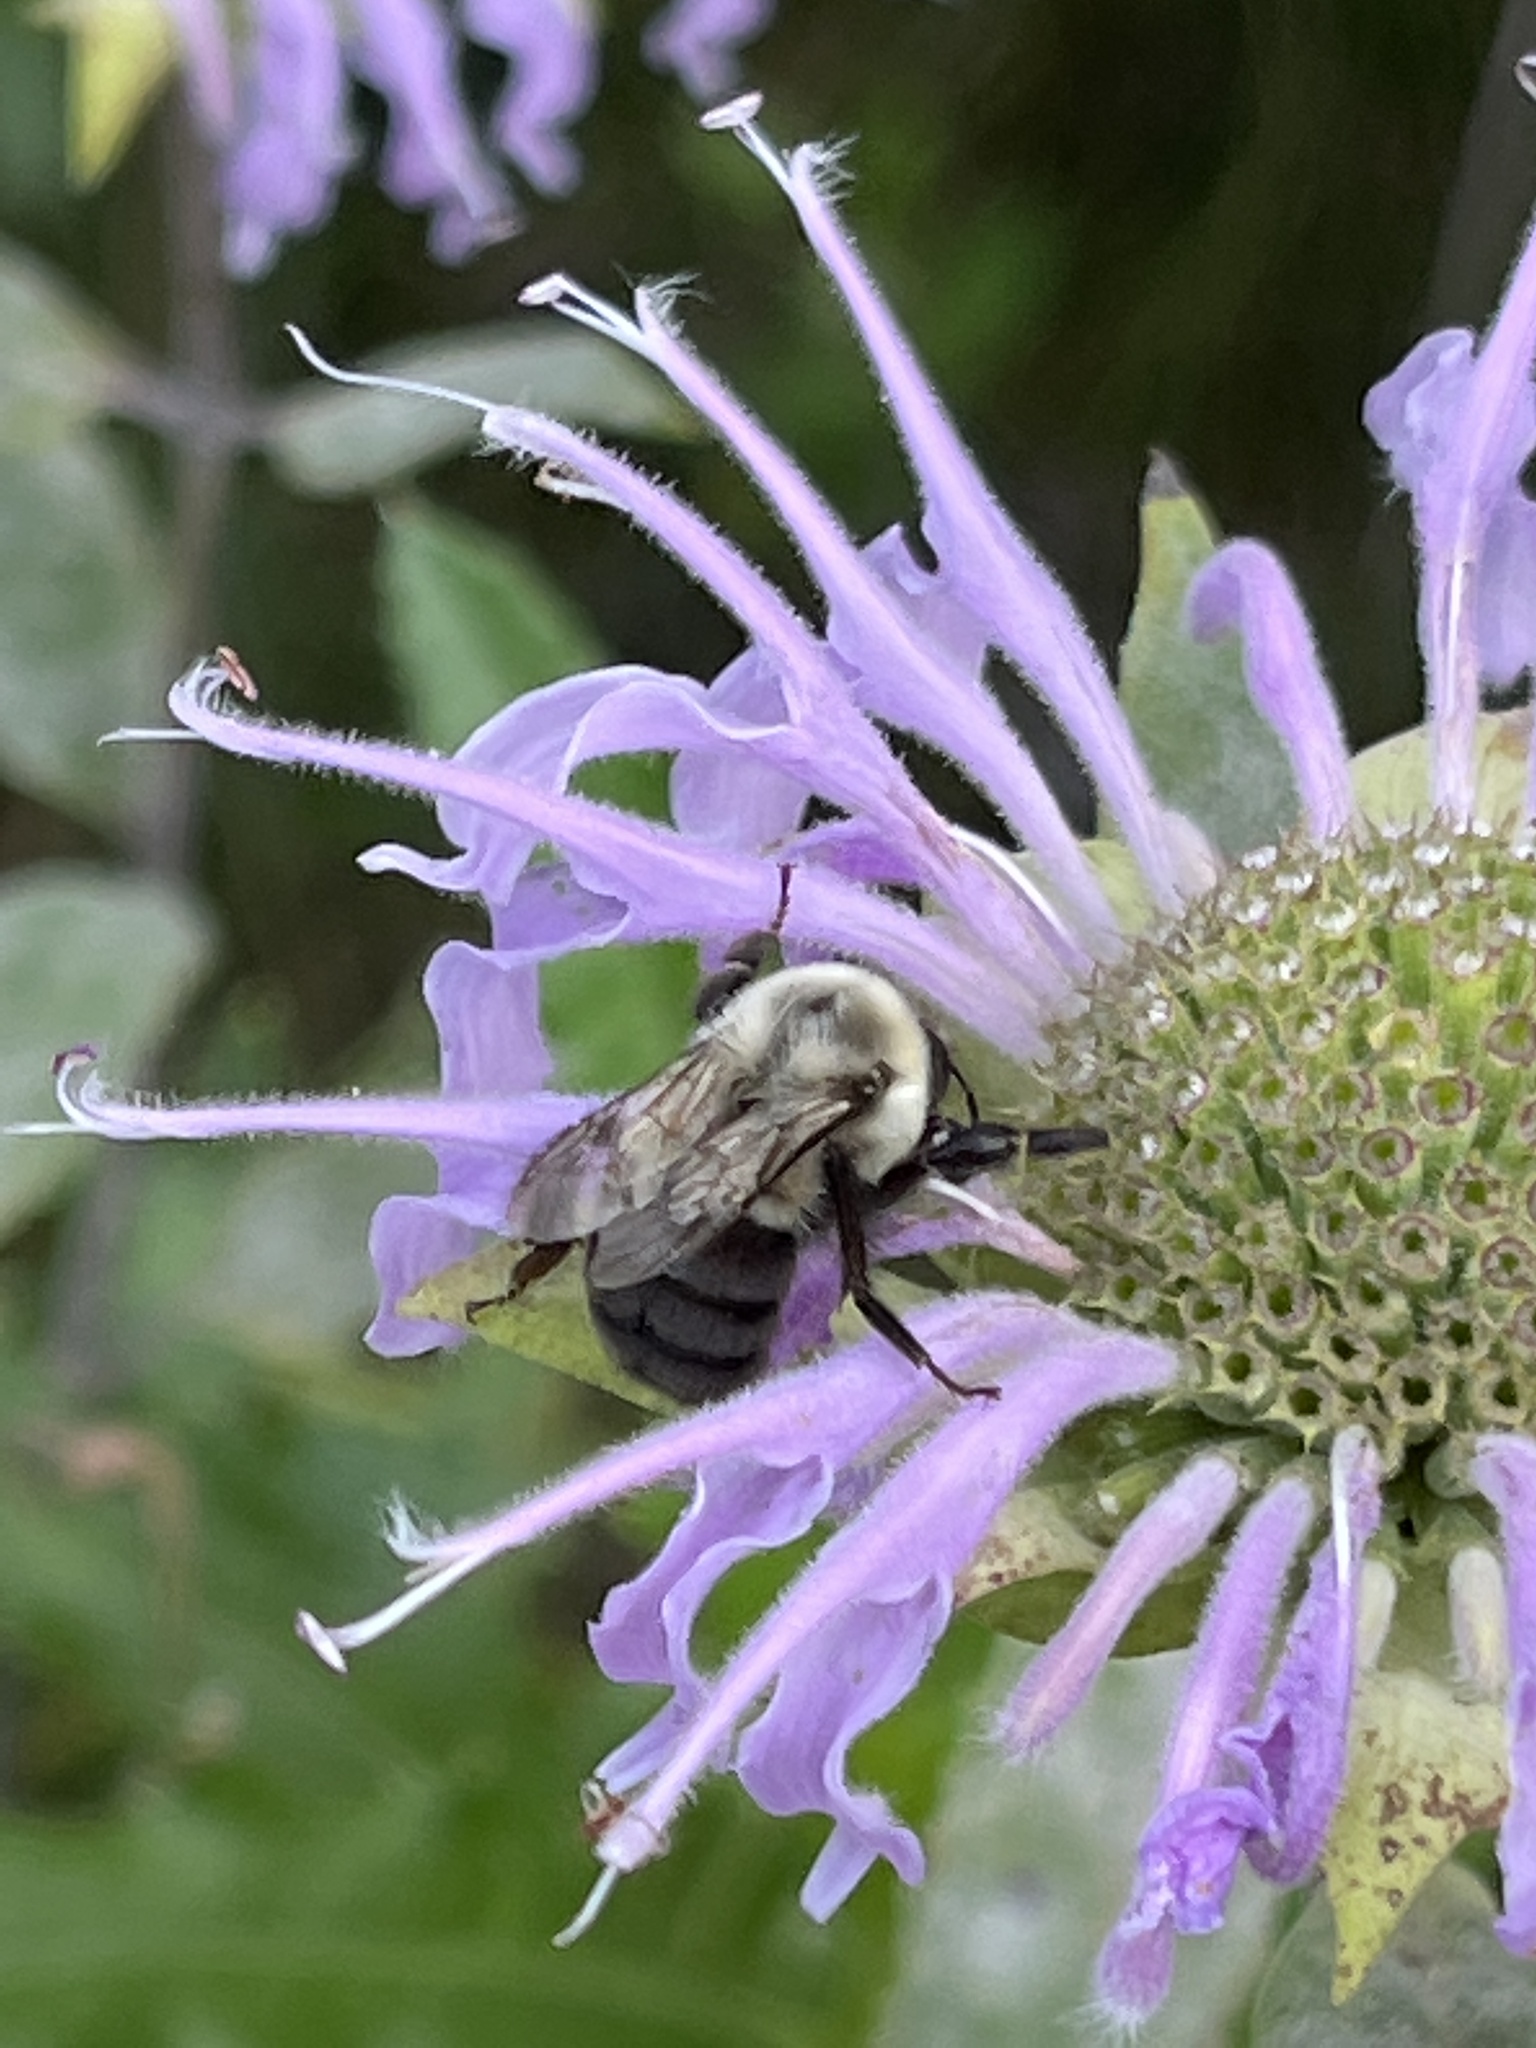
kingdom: Animalia
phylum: Arthropoda
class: Insecta
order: Hymenoptera
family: Apidae
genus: Bombus
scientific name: Bombus impatiens
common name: Common eastern bumble bee
